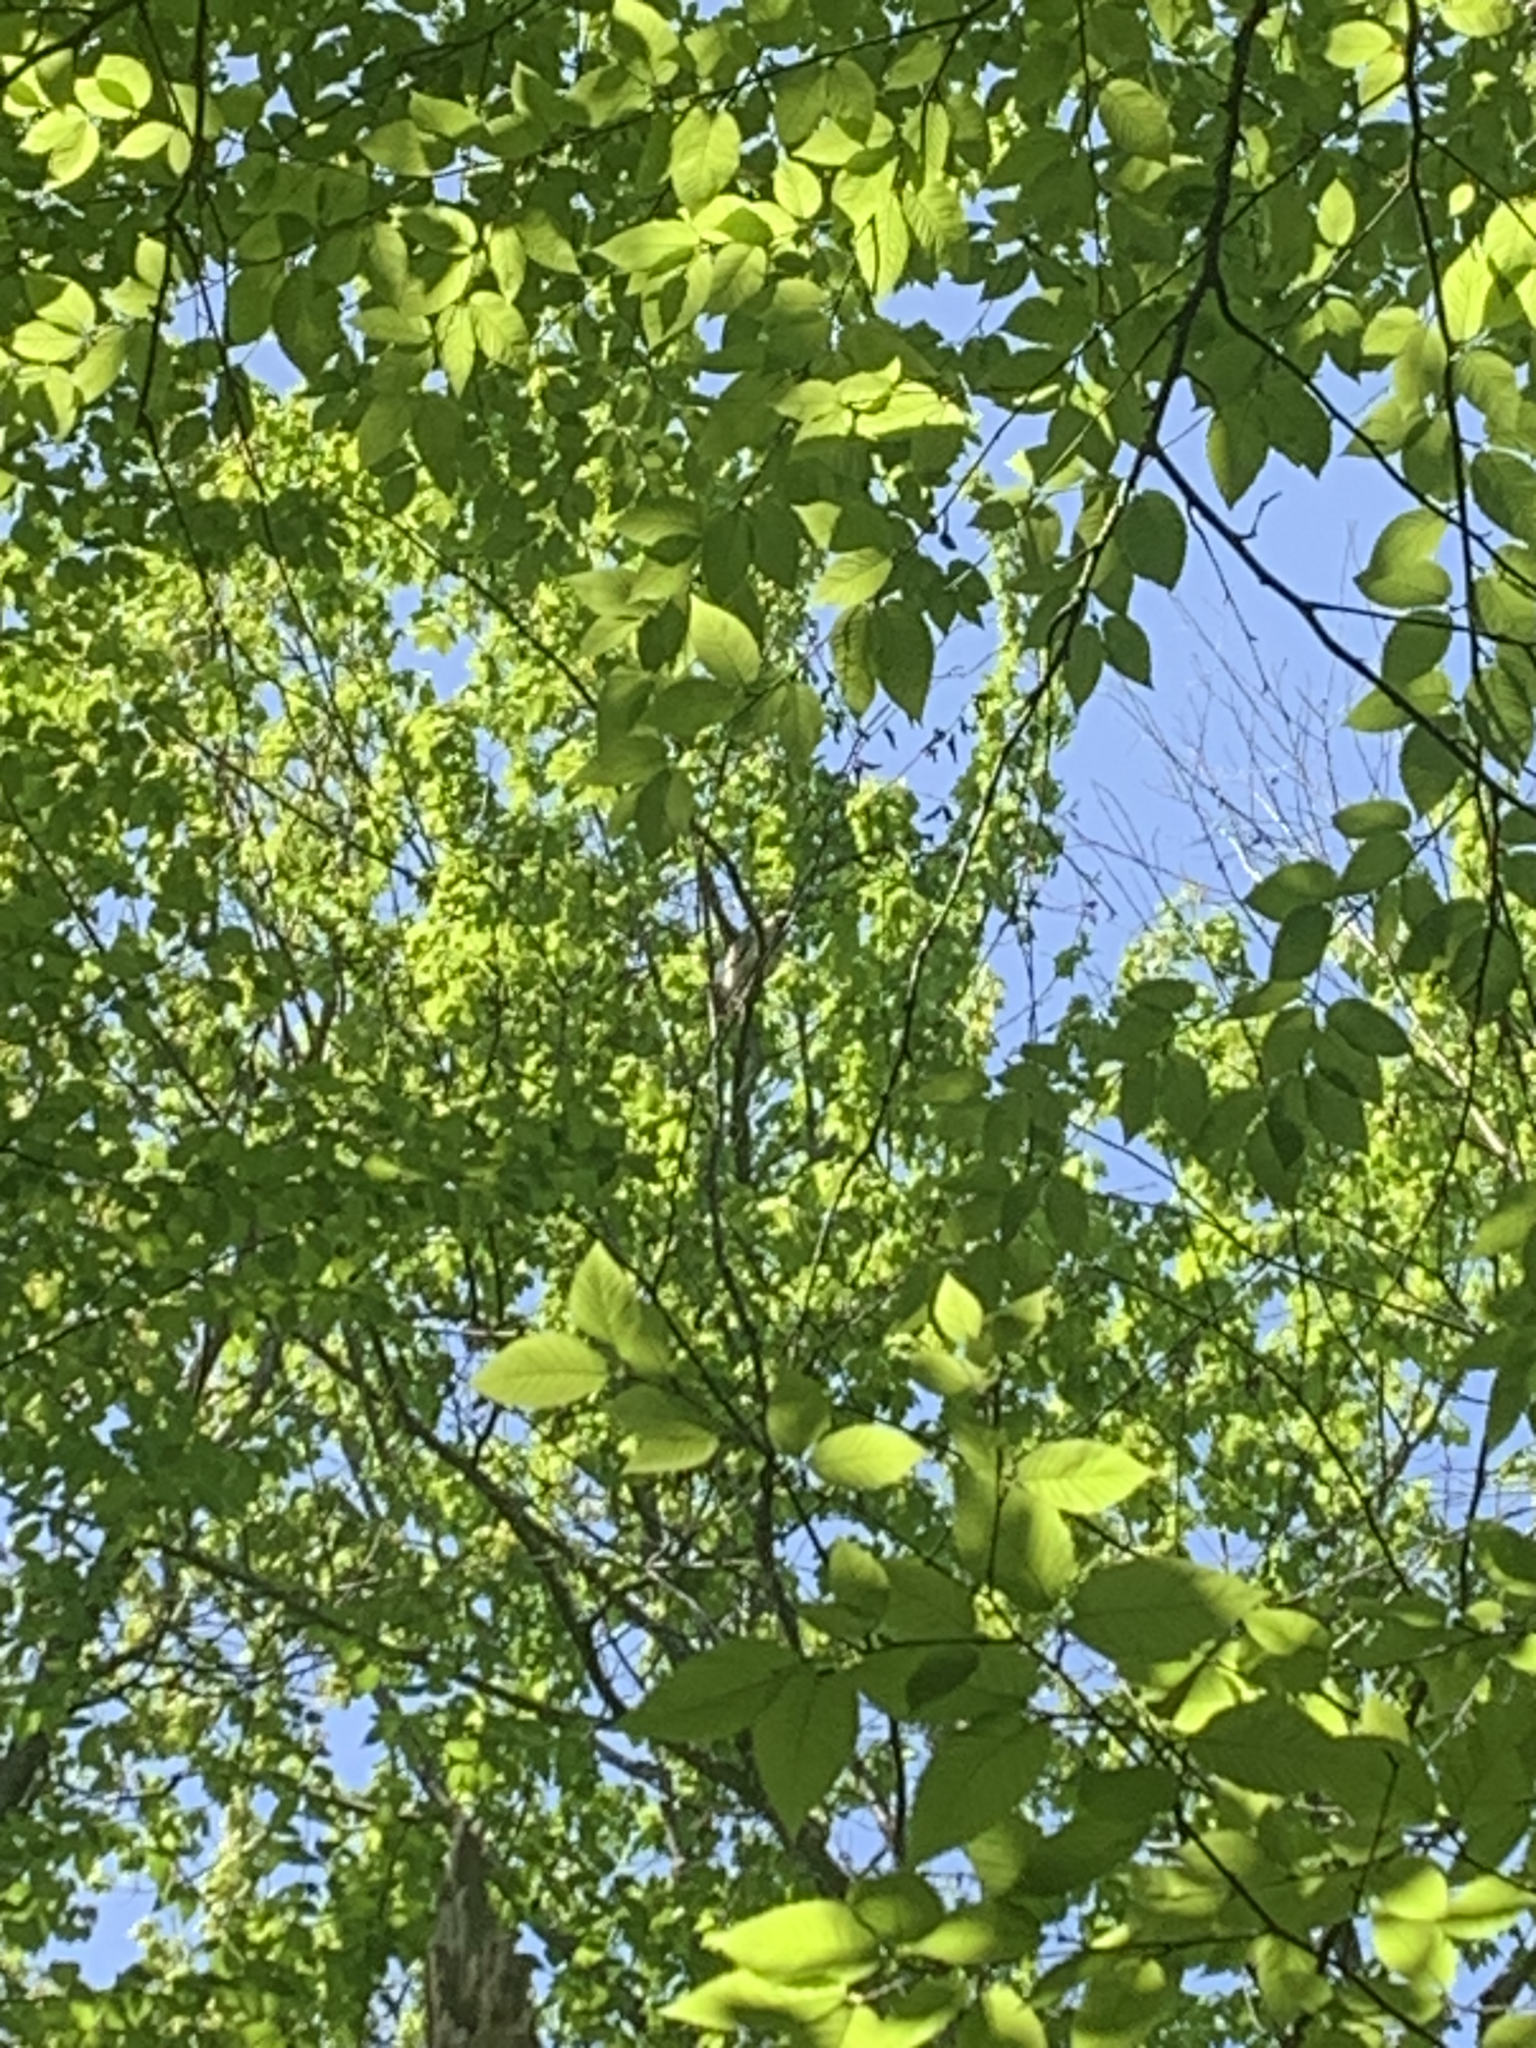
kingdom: Animalia
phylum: Chordata
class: Aves
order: Accipitriformes
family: Accipitridae
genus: Buteo
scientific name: Buteo lineatus
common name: Red-shouldered hawk
